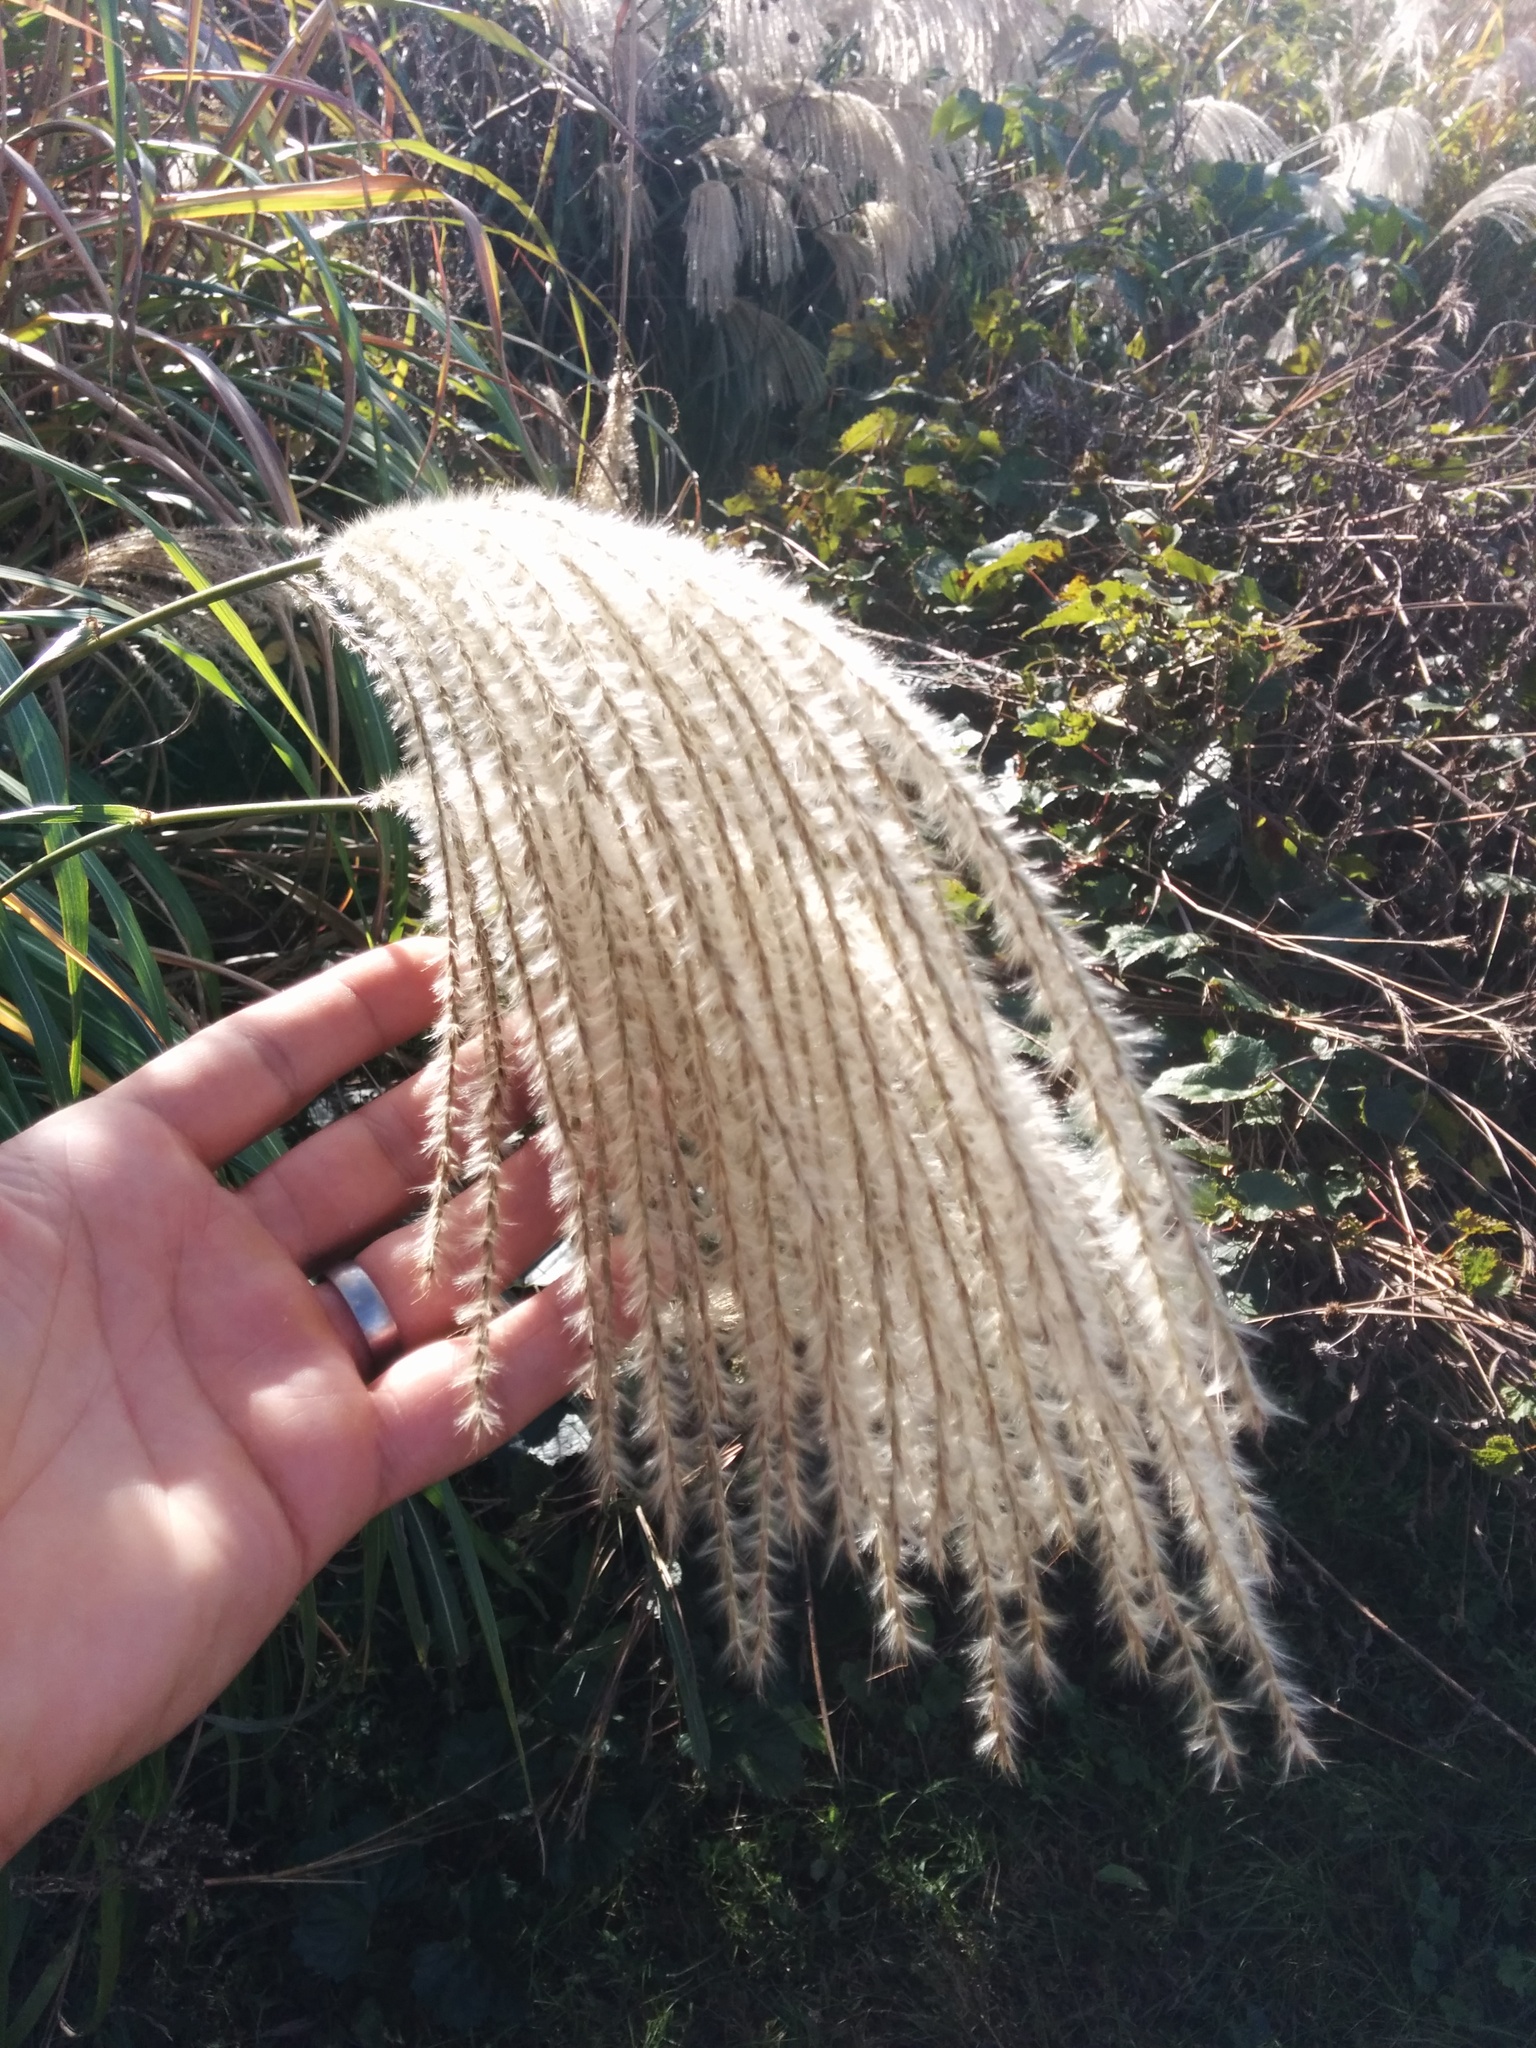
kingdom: Plantae
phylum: Tracheophyta
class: Liliopsida
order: Poales
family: Poaceae
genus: Miscanthus
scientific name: Miscanthus sinensis
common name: Chinese silvergrass
